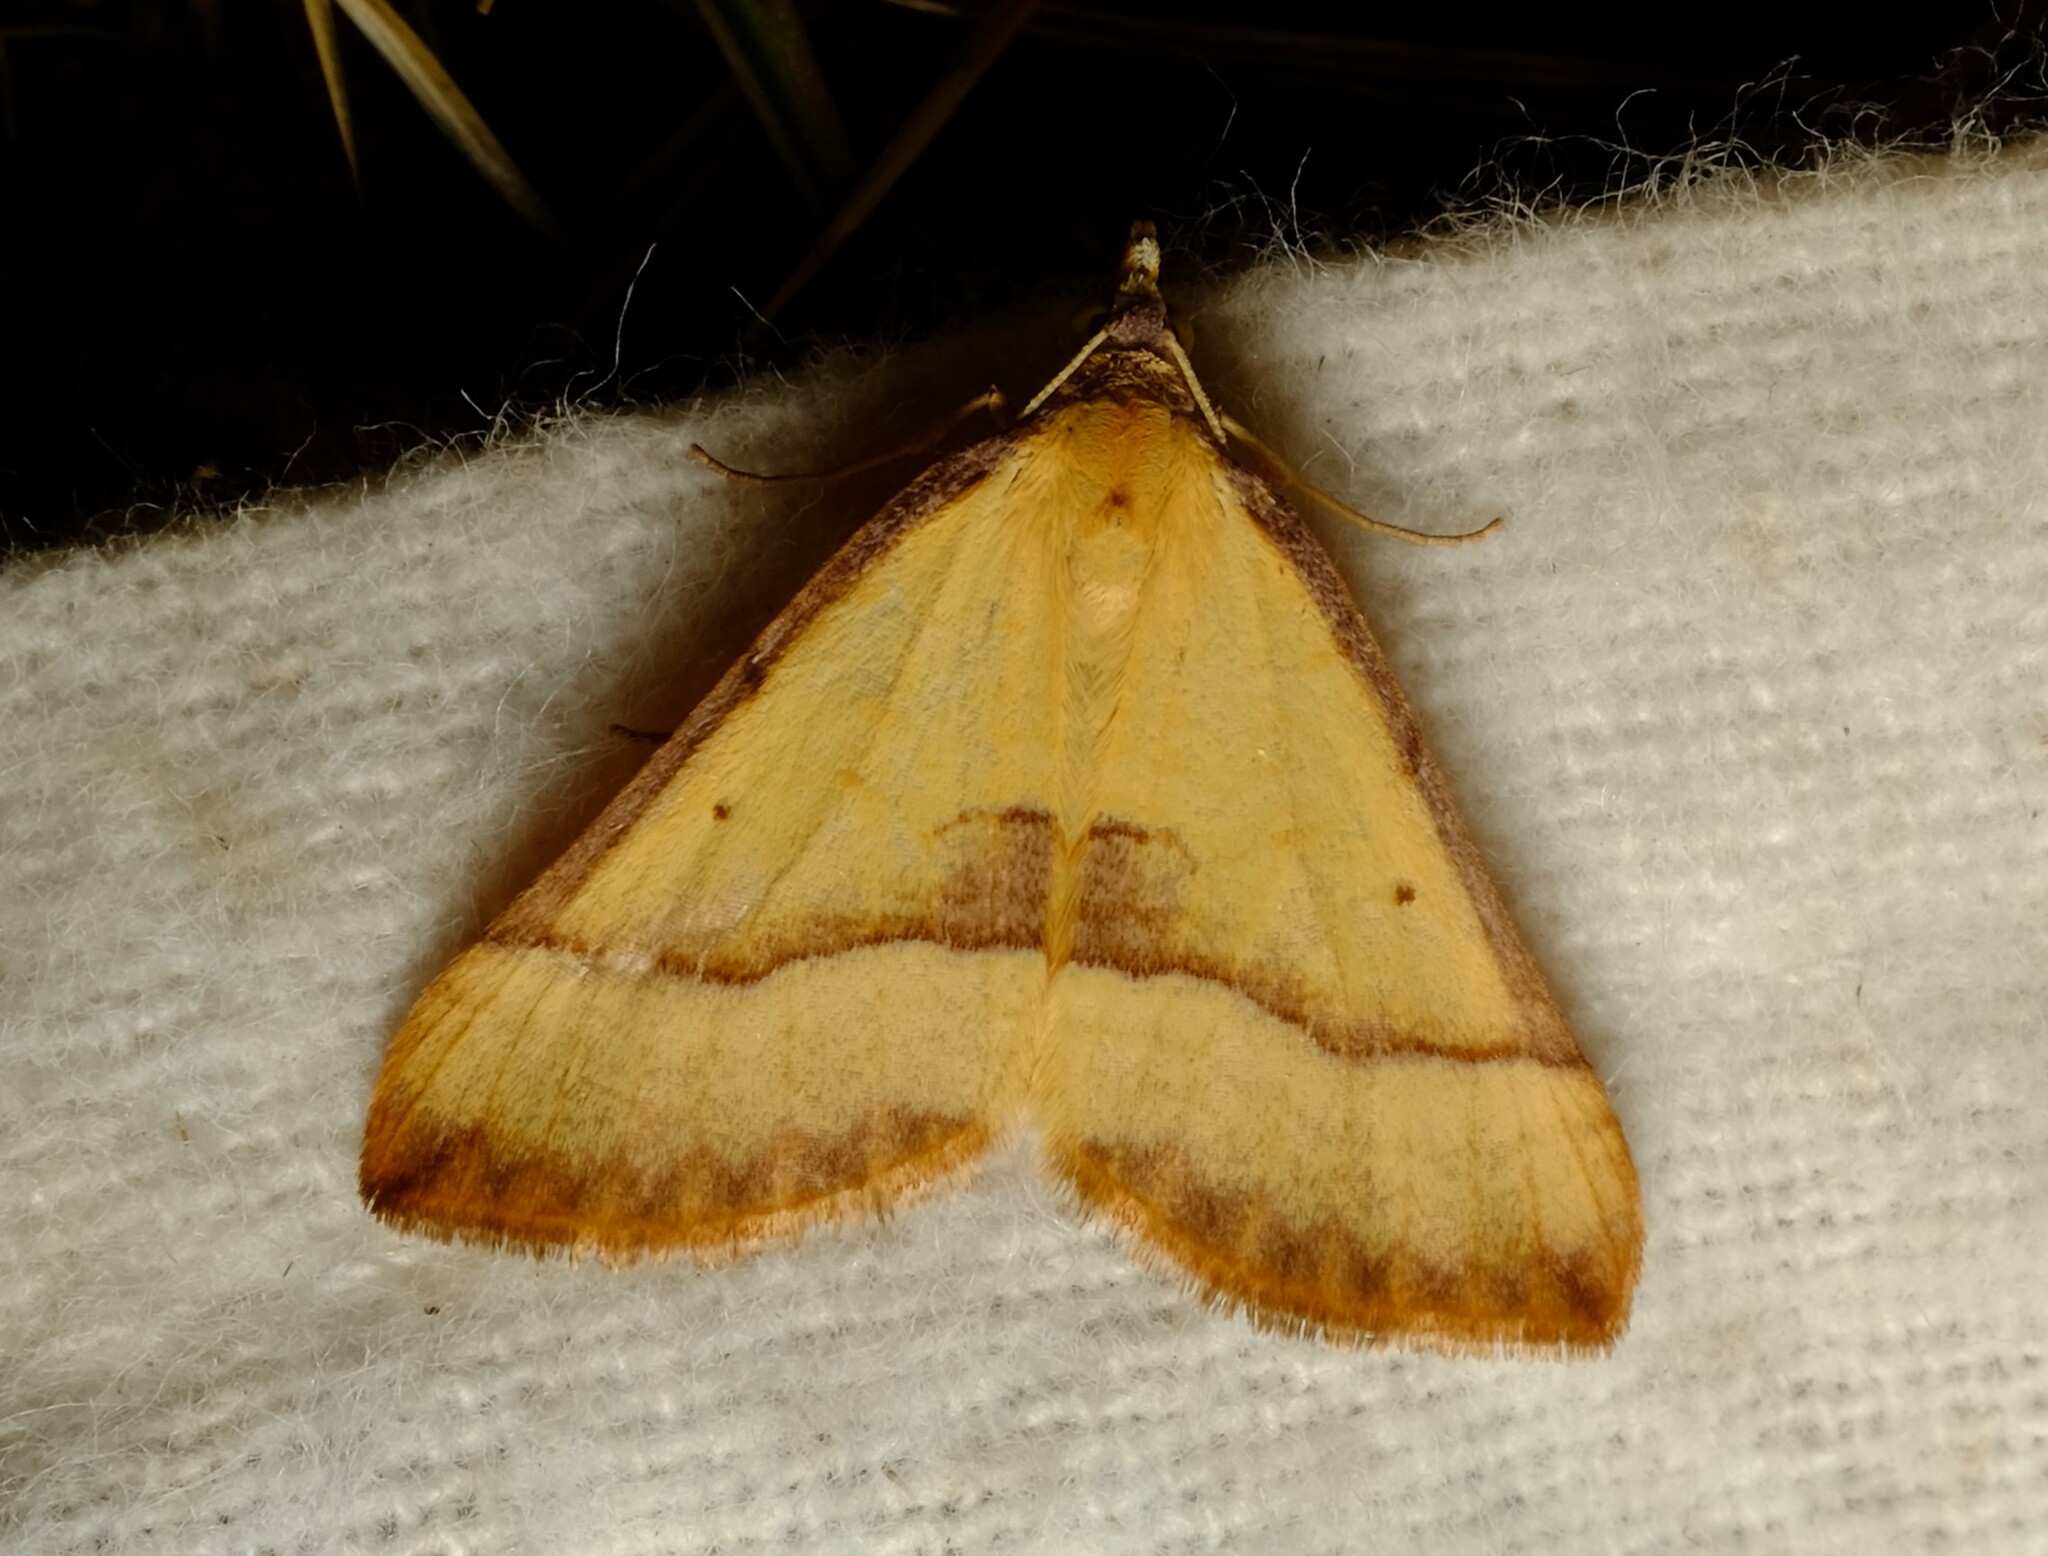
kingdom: Animalia
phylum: Arthropoda
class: Insecta
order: Lepidoptera
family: Geometridae
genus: Anachloris
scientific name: Anachloris subochraria
